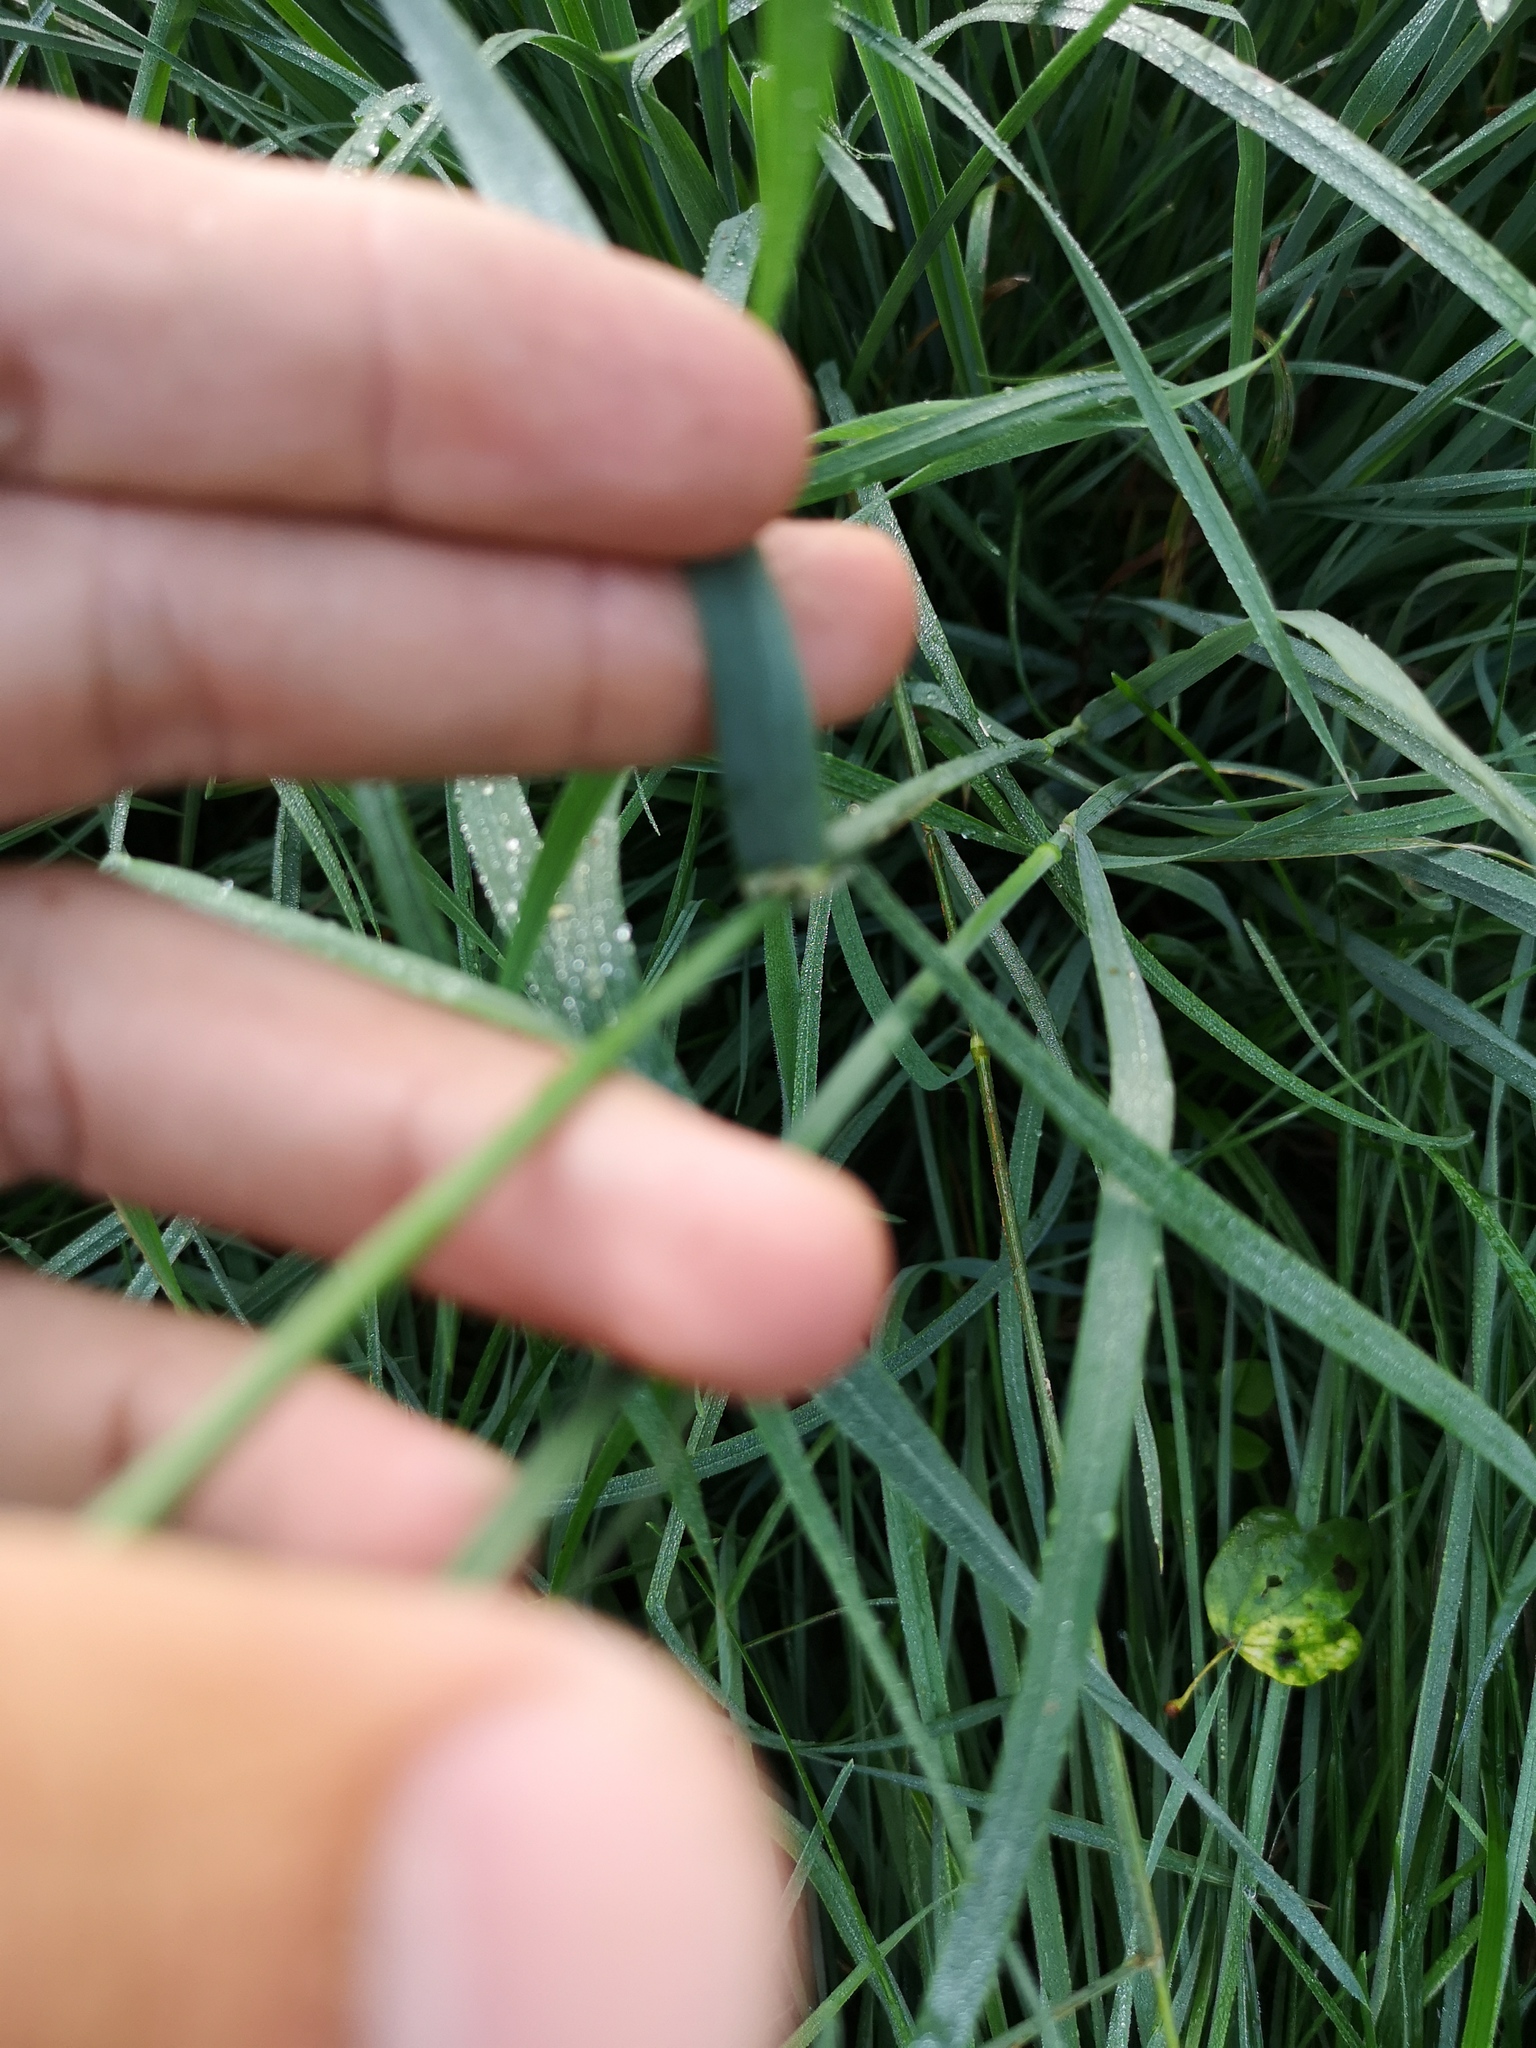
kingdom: Plantae
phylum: Tracheophyta
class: Liliopsida
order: Poales
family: Poaceae
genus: Dactylis
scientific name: Dactylis glomerata
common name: Orchardgrass
